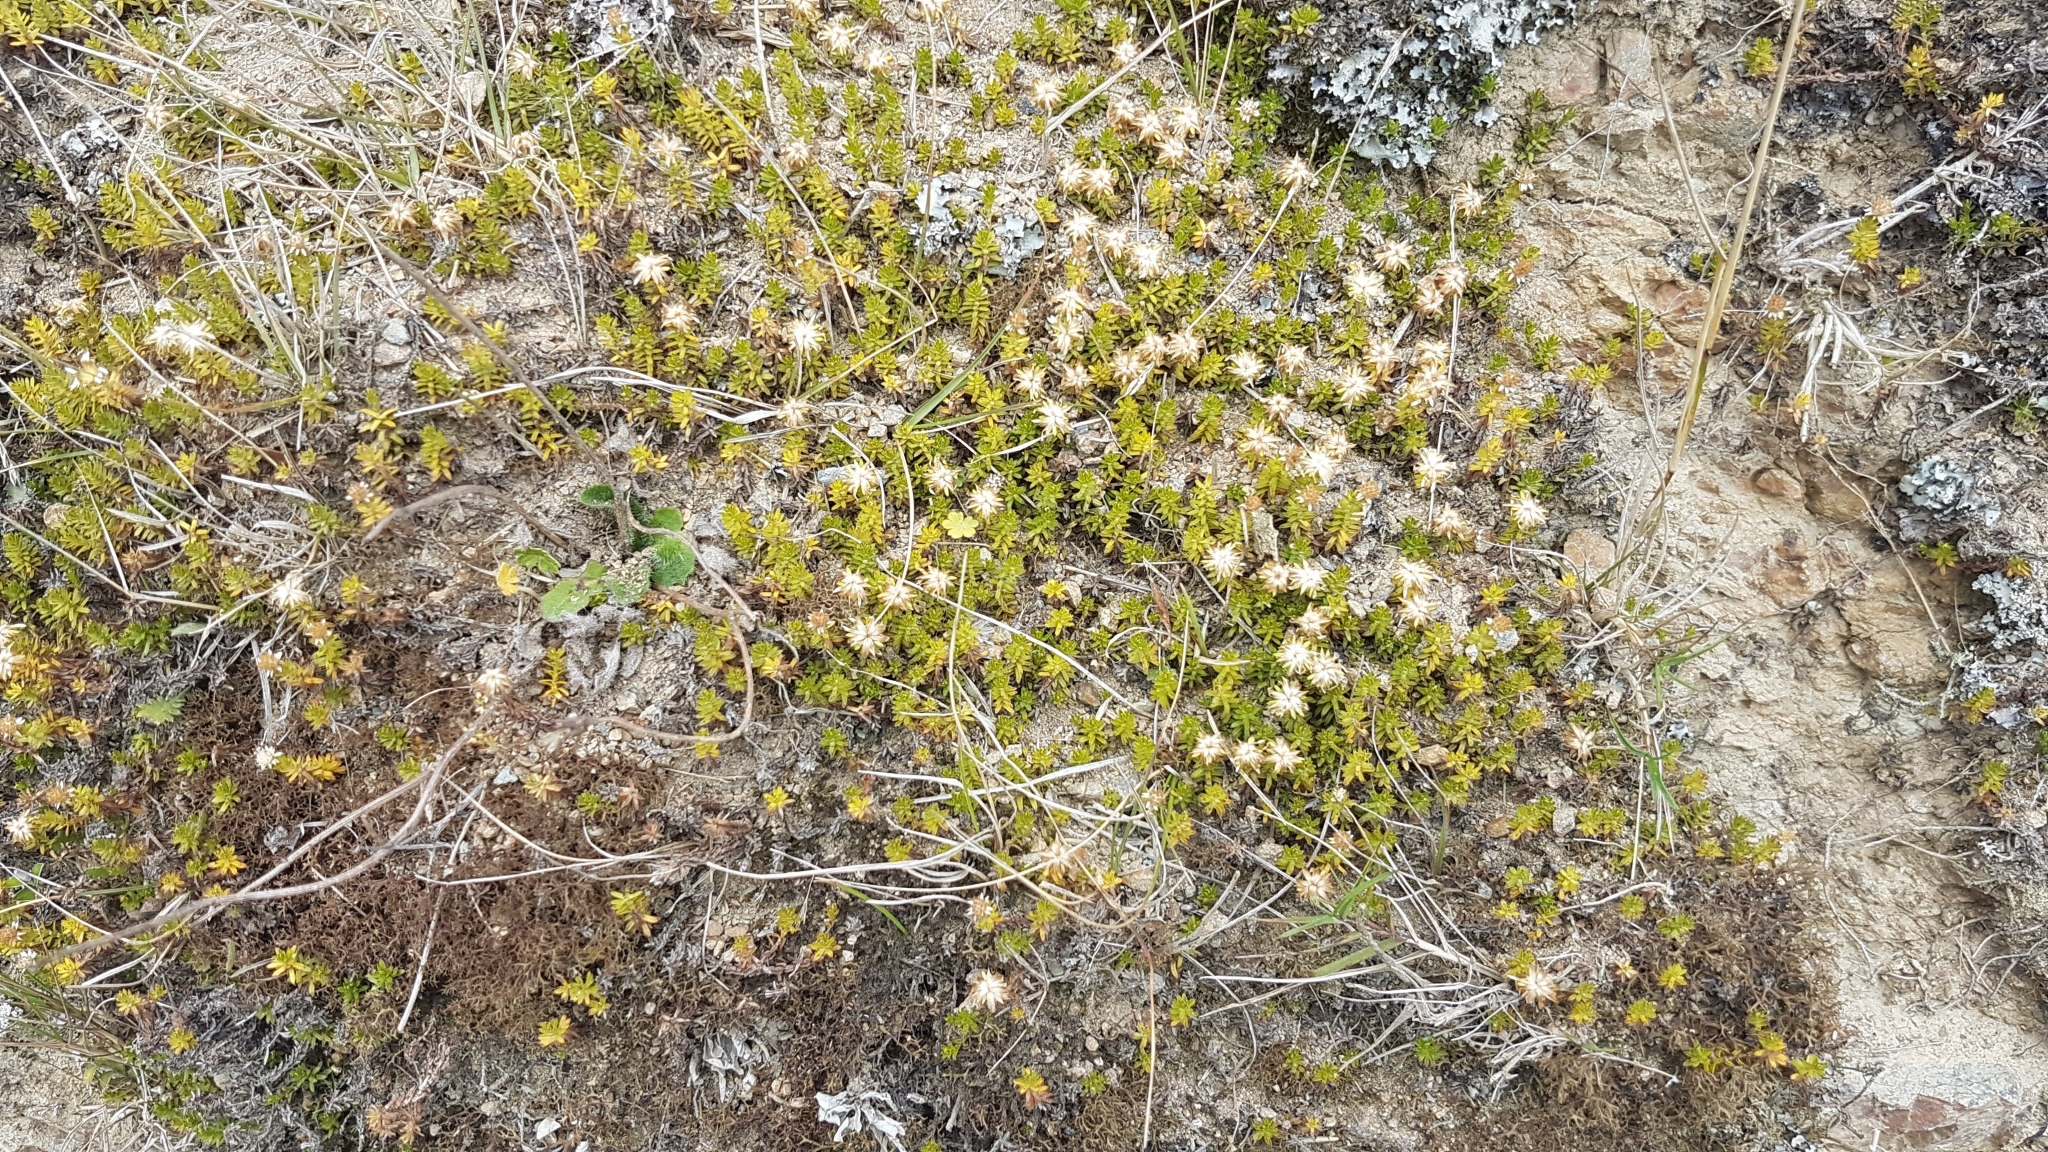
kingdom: Plantae
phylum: Tracheophyta
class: Magnoliopsida
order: Asterales
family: Asteraceae
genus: Raoulia
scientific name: Raoulia glabra
